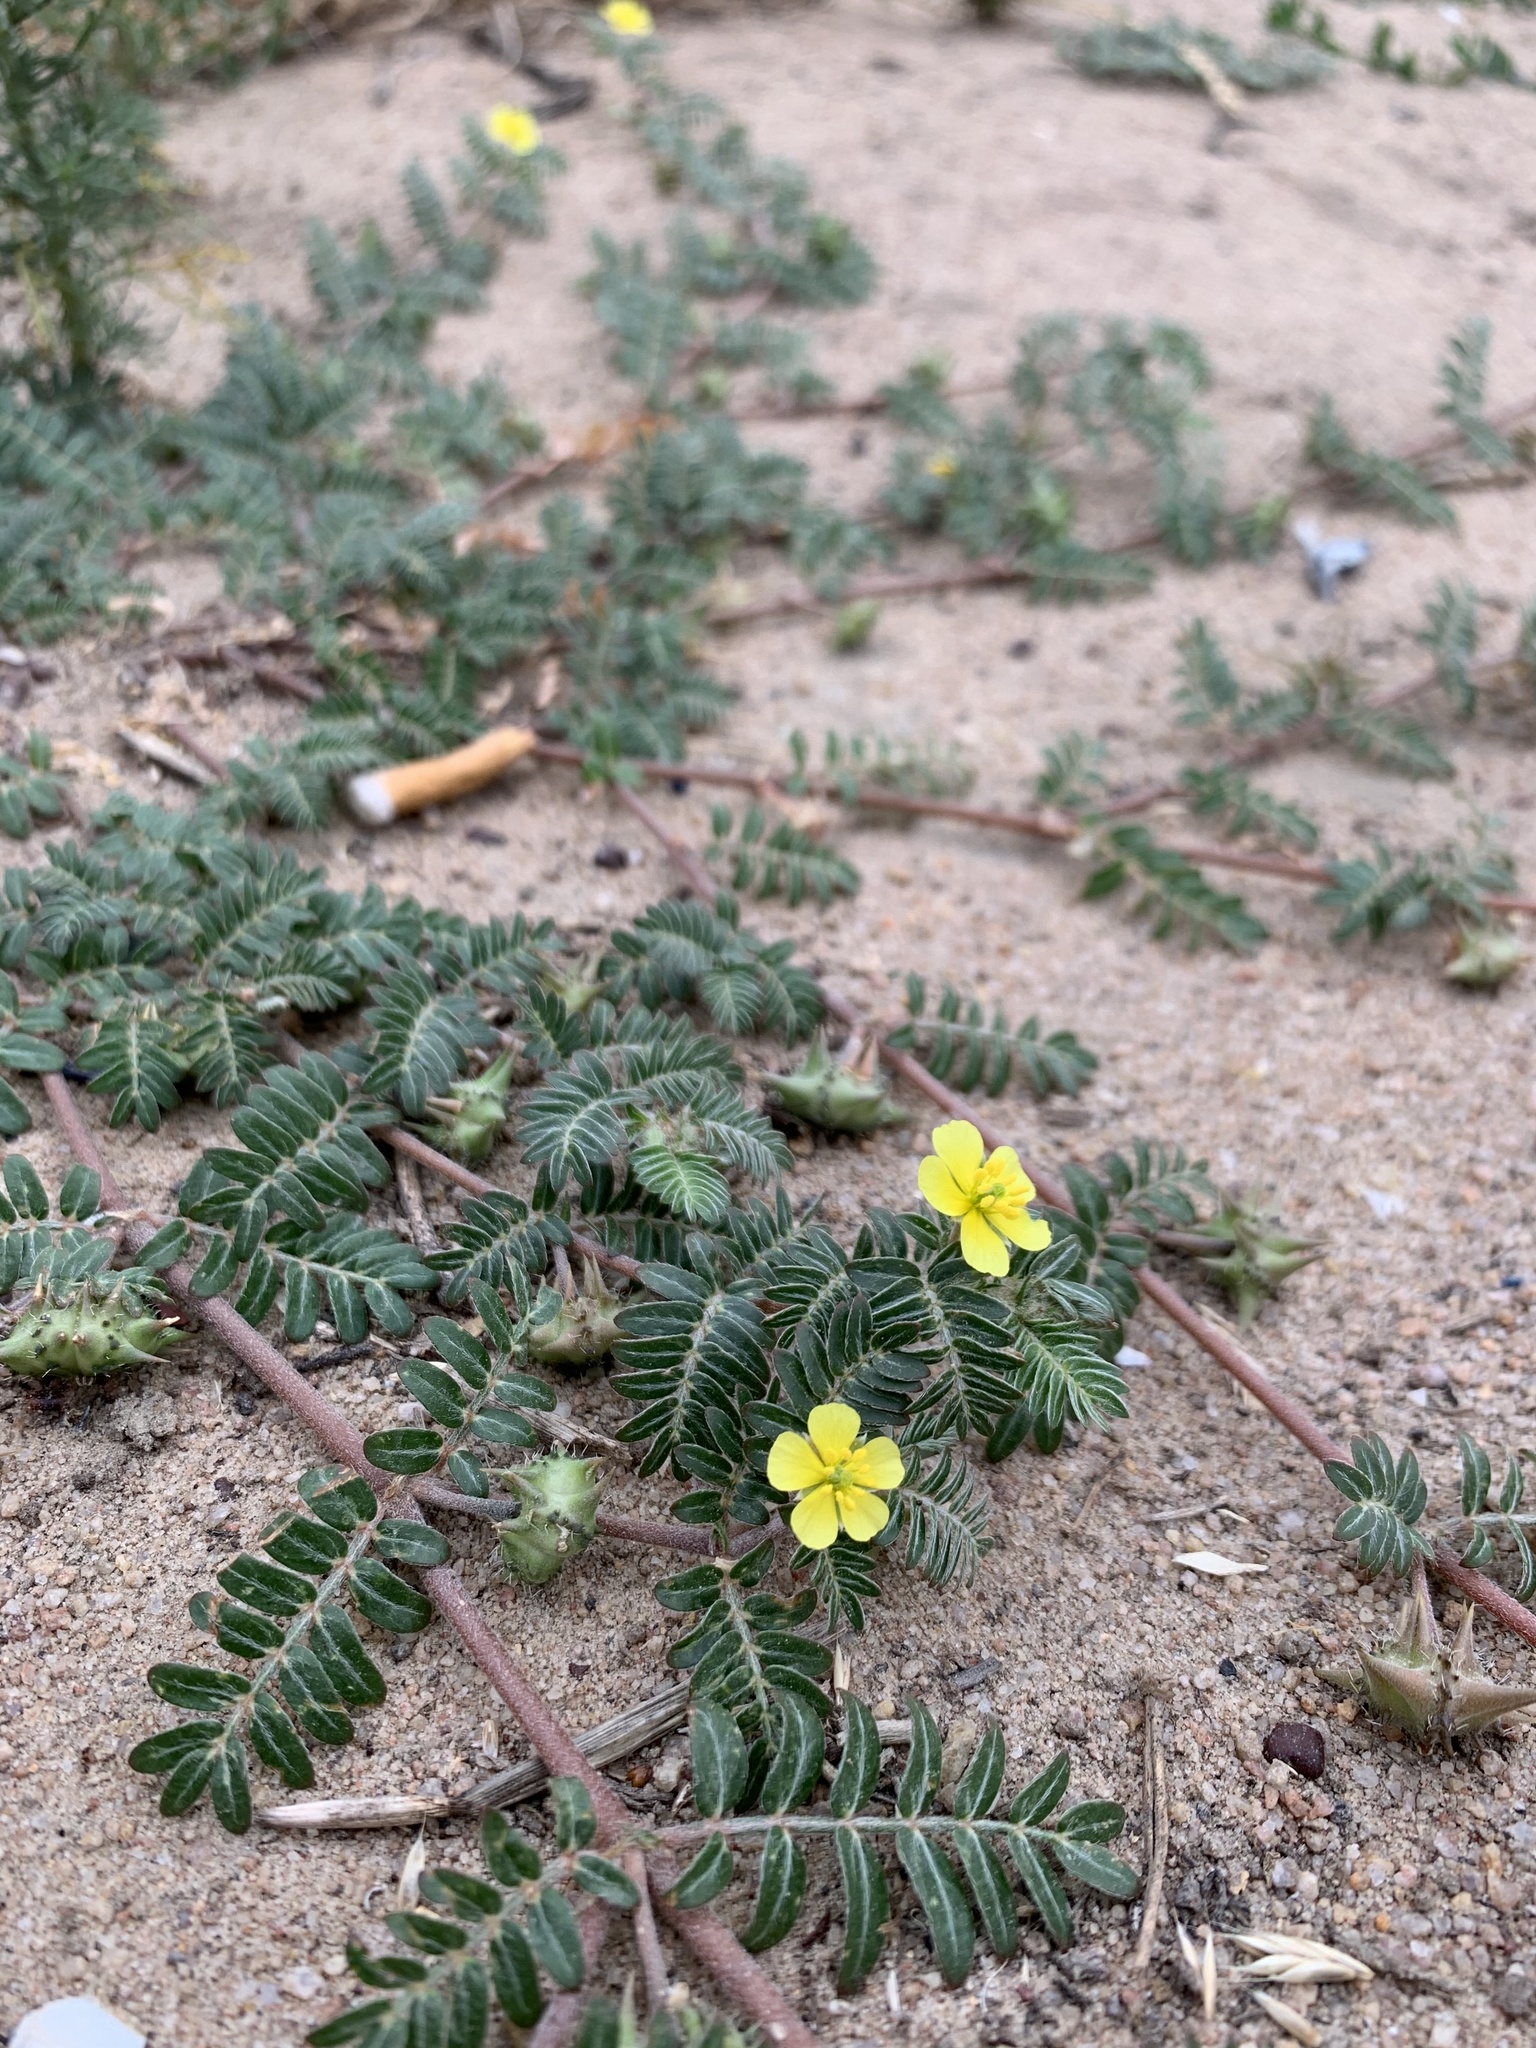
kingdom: Plantae
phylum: Tracheophyta
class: Magnoliopsida
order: Zygophyllales
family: Zygophyllaceae
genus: Tribulus
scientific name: Tribulus terrestris
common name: Puncturevine
